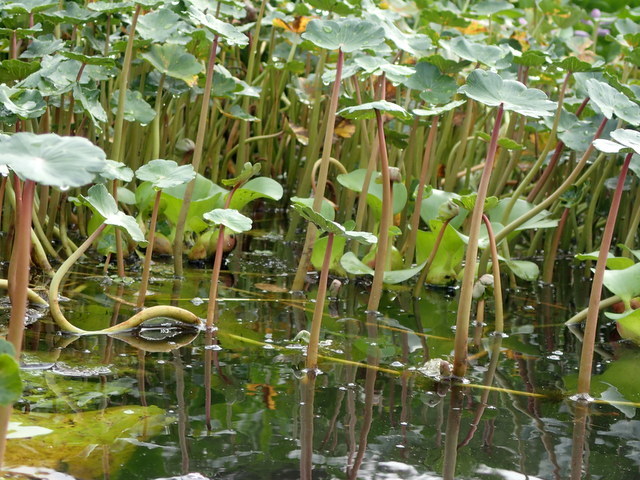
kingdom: Plantae
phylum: Tracheophyta
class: Magnoliopsida
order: Apiales
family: Araliaceae
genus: Hydrocotyle
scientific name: Hydrocotyle ranunculoides
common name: Floating pennywort
